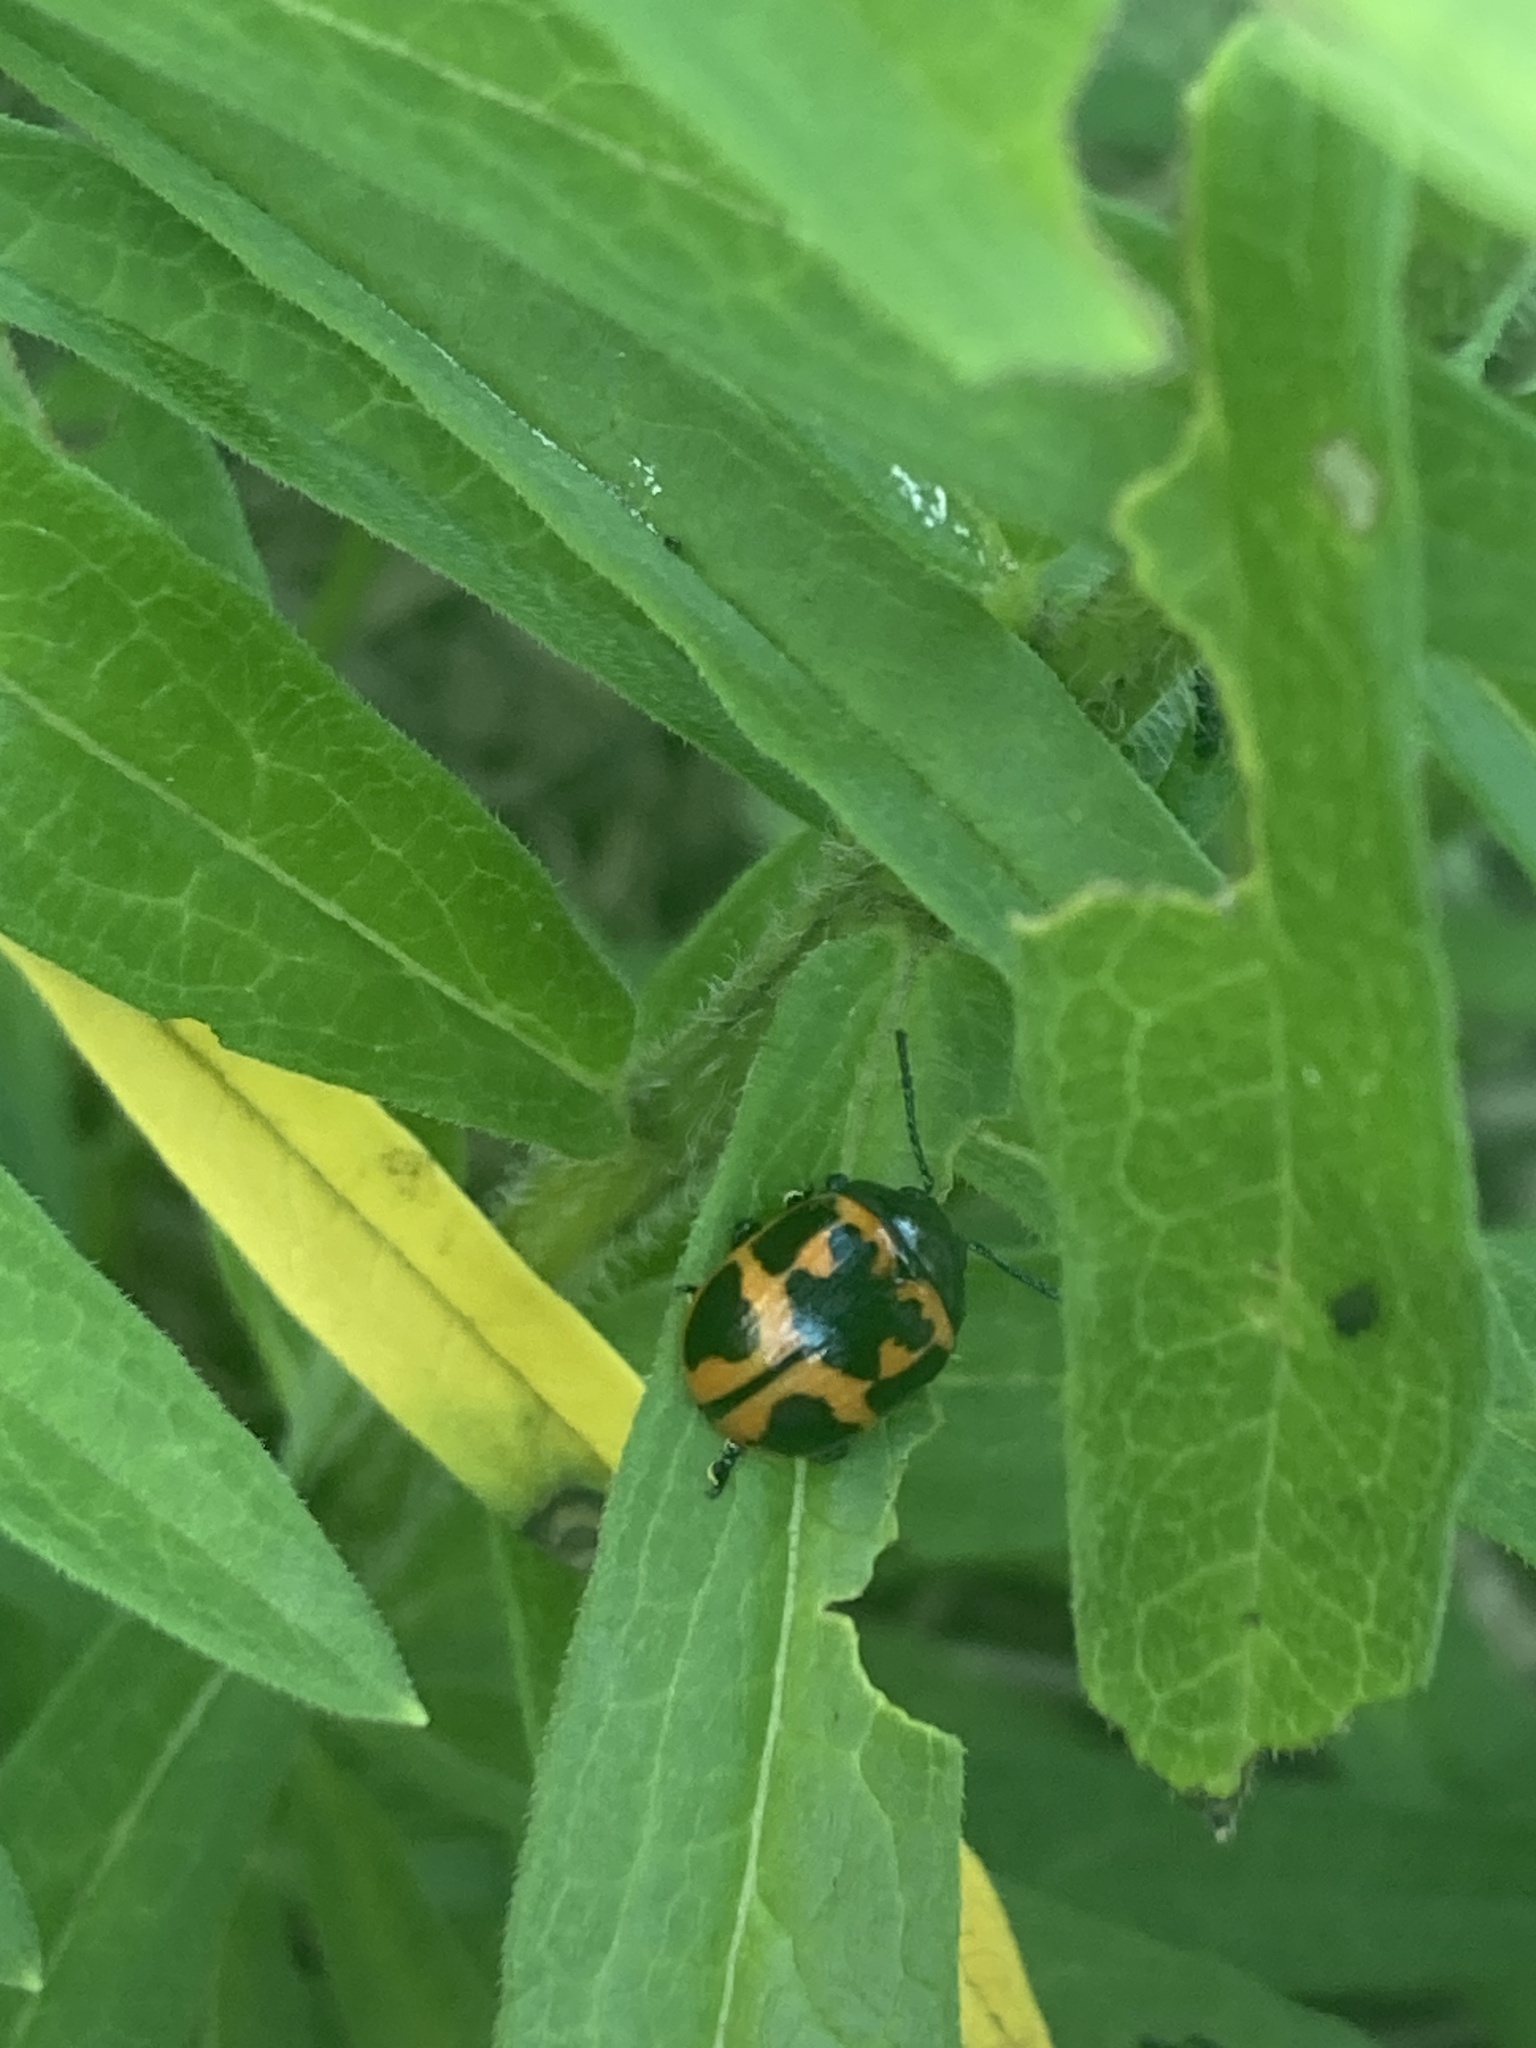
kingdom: Animalia
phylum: Arthropoda
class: Insecta
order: Coleoptera
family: Chrysomelidae
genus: Labidomera
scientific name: Labidomera clivicollis
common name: Swamp milkweed leaf beetle
